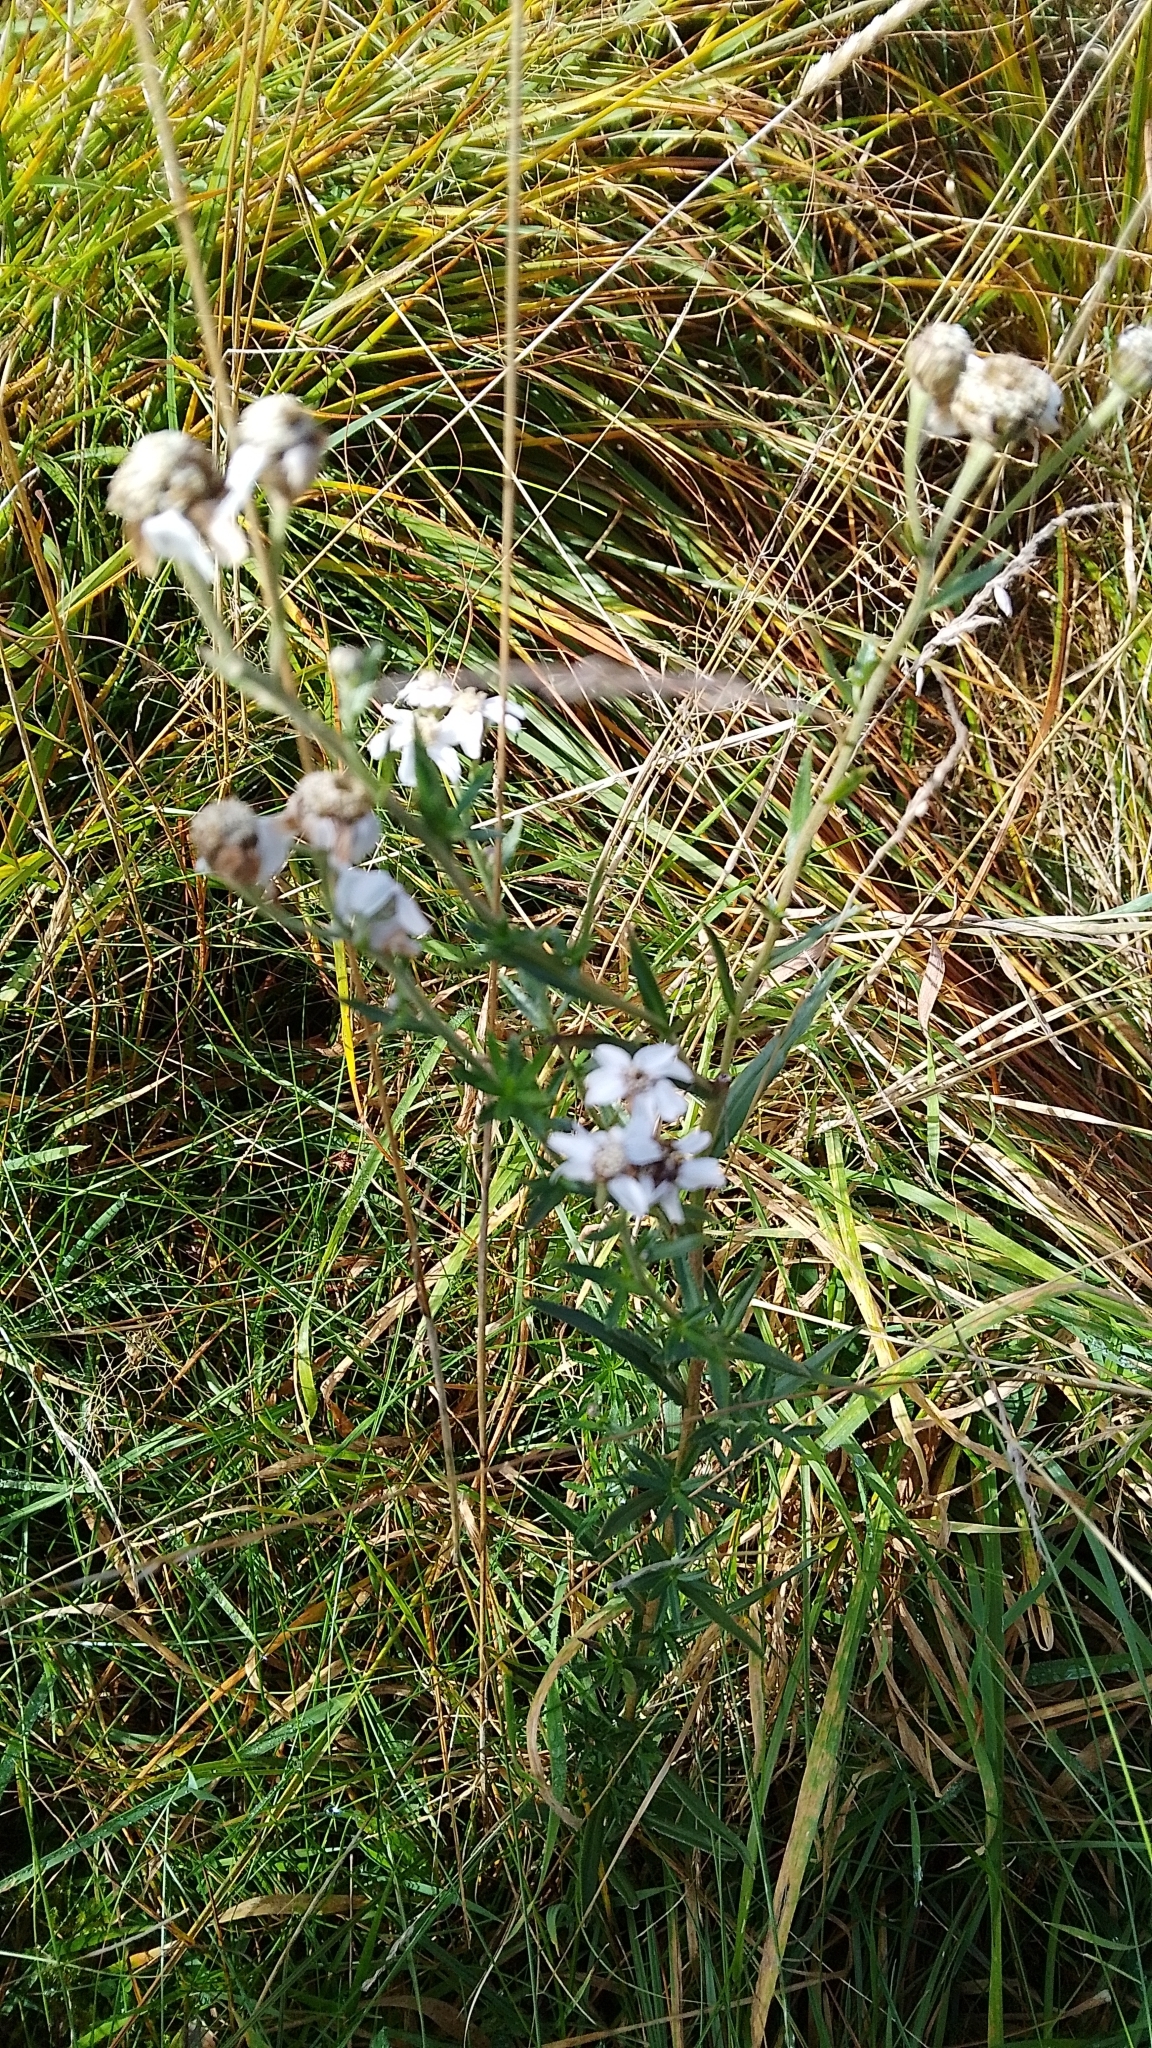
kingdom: Plantae
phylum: Tracheophyta
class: Magnoliopsida
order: Asterales
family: Asteraceae
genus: Achillea
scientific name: Achillea ptarmica
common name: Sneezeweed
